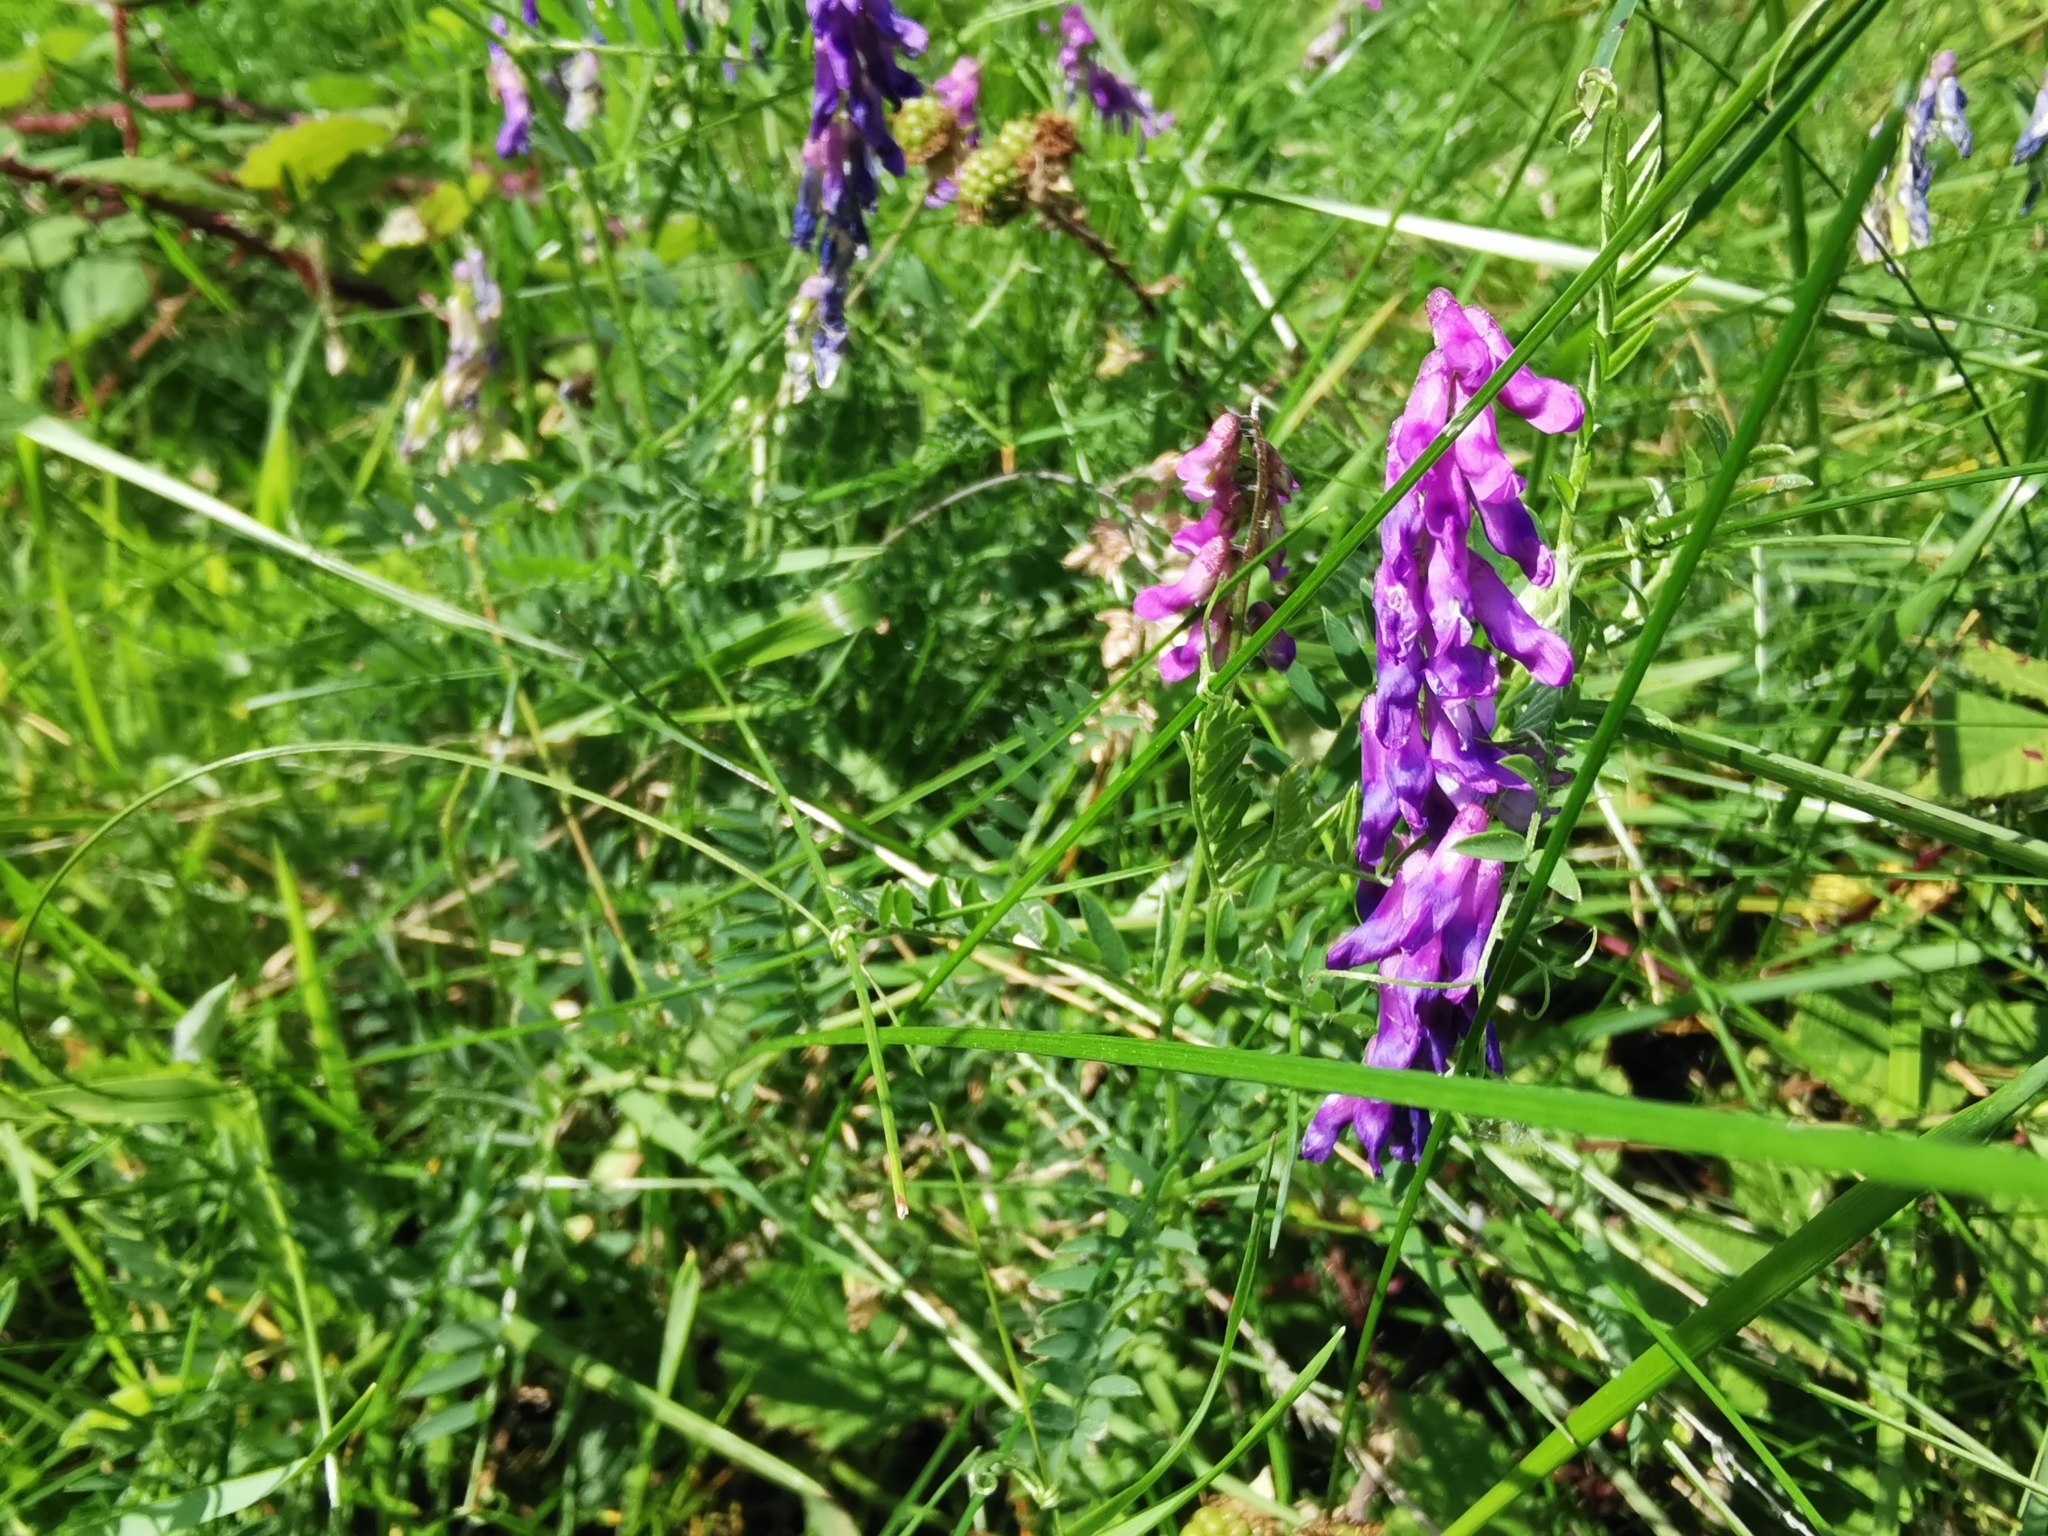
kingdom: Plantae
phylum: Tracheophyta
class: Magnoliopsida
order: Fabales
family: Fabaceae
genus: Vicia
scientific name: Vicia cracca
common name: Bird vetch
